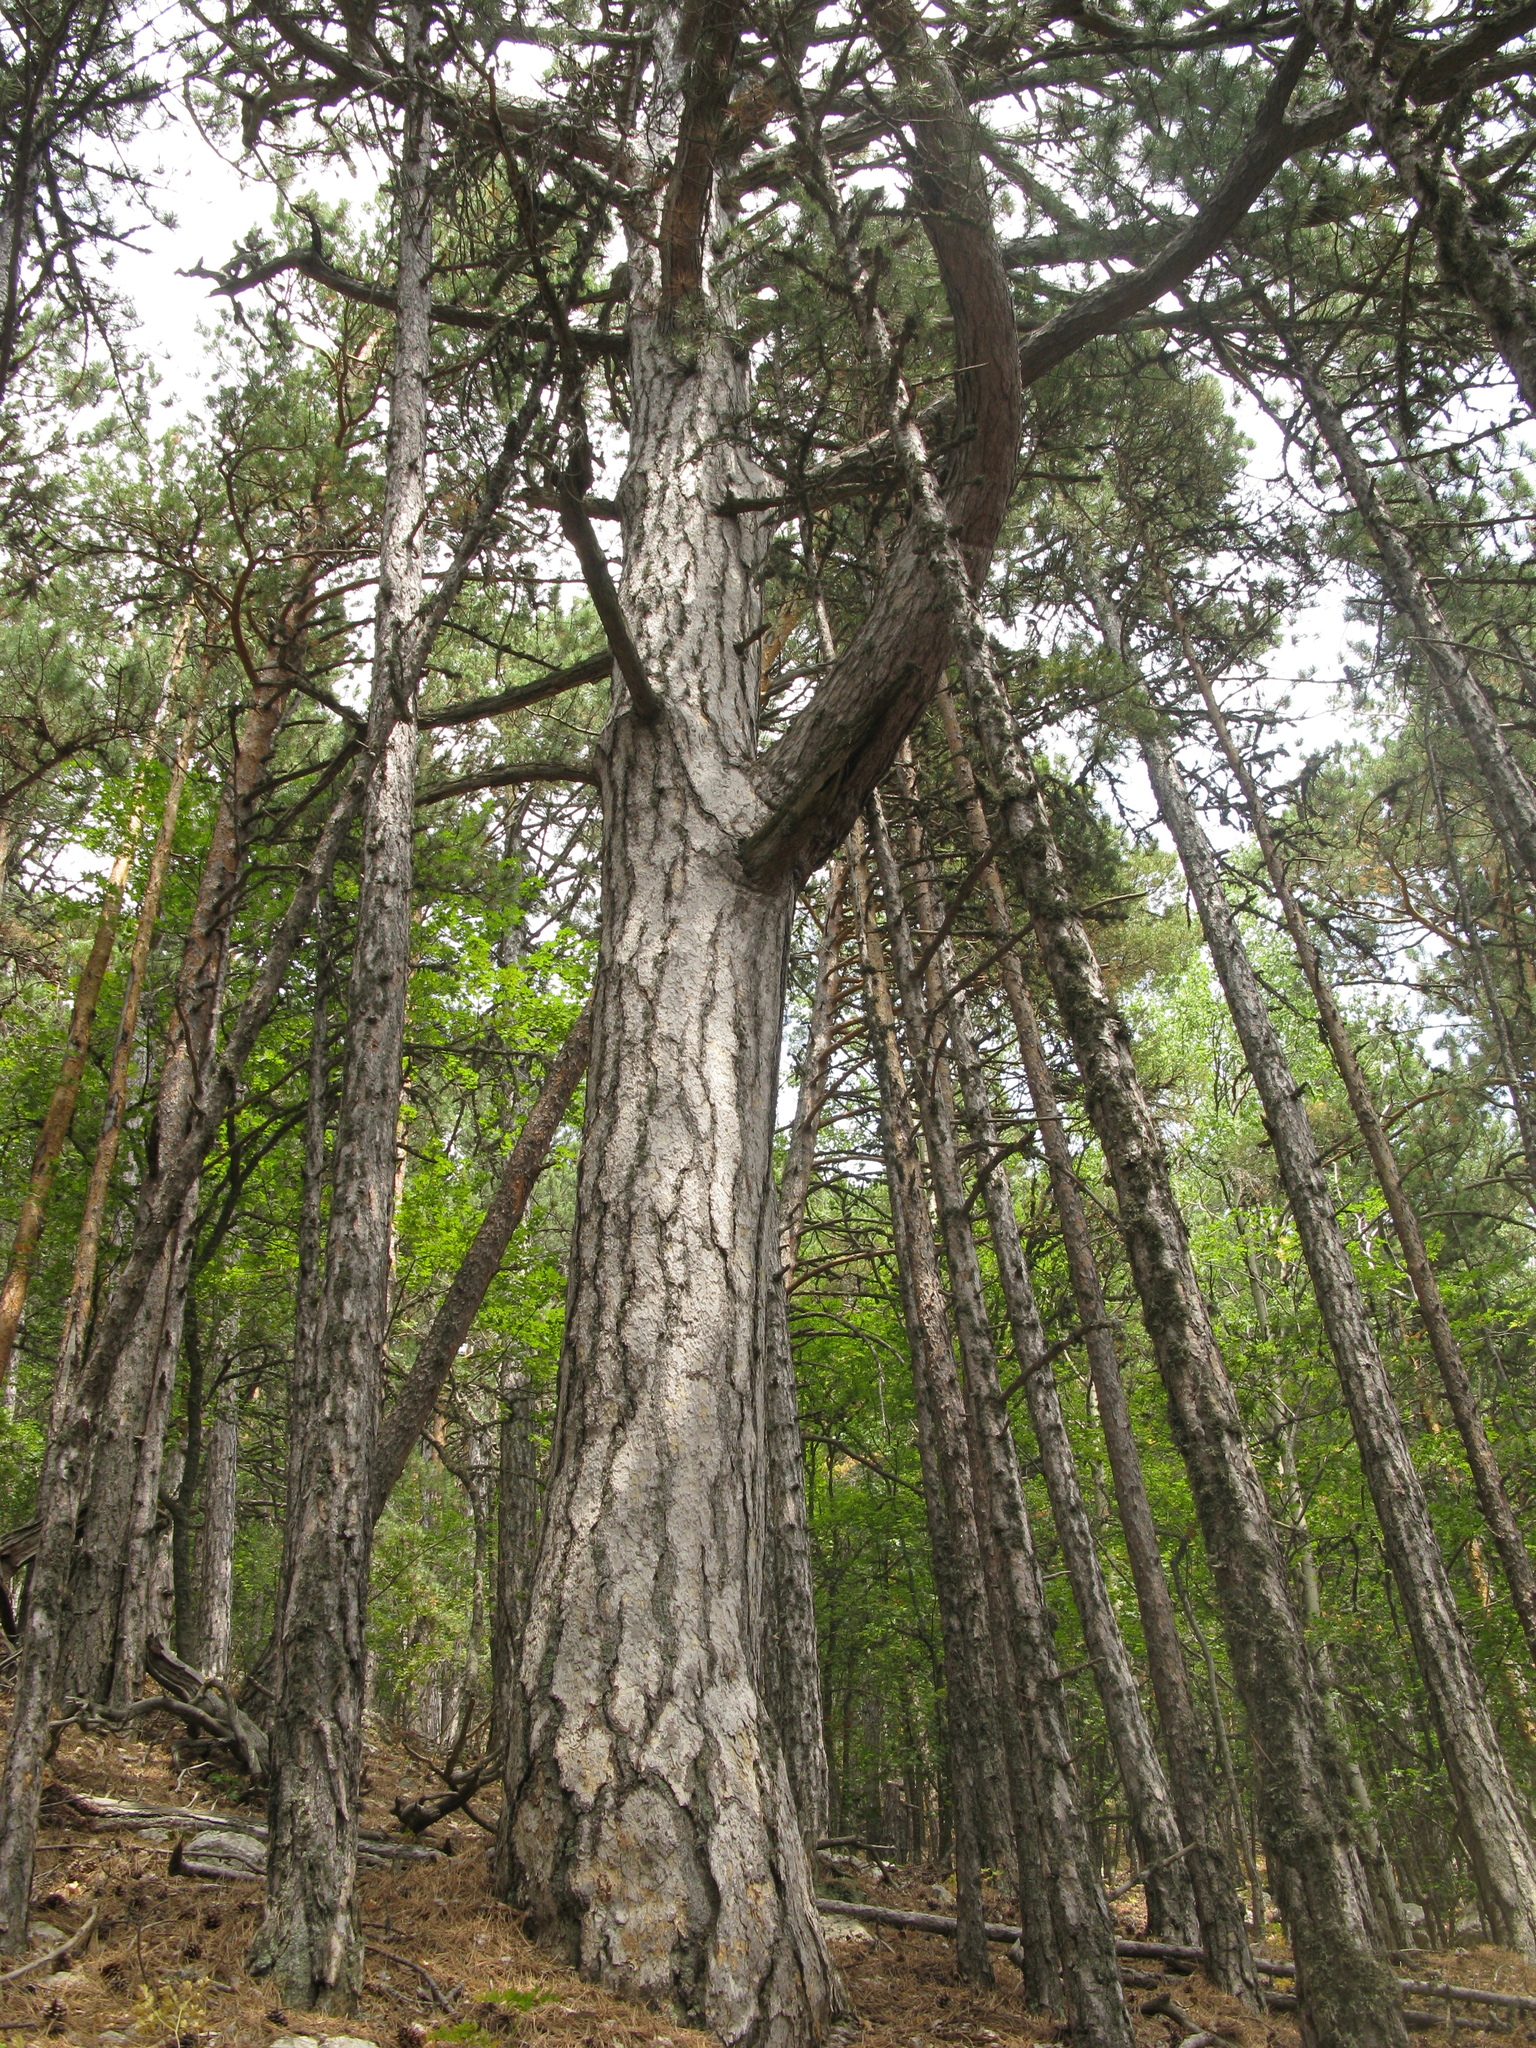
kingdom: Plantae
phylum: Tracheophyta
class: Pinopsida
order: Pinales
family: Pinaceae
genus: Pinus
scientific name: Pinus nigra
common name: Austrian pine
